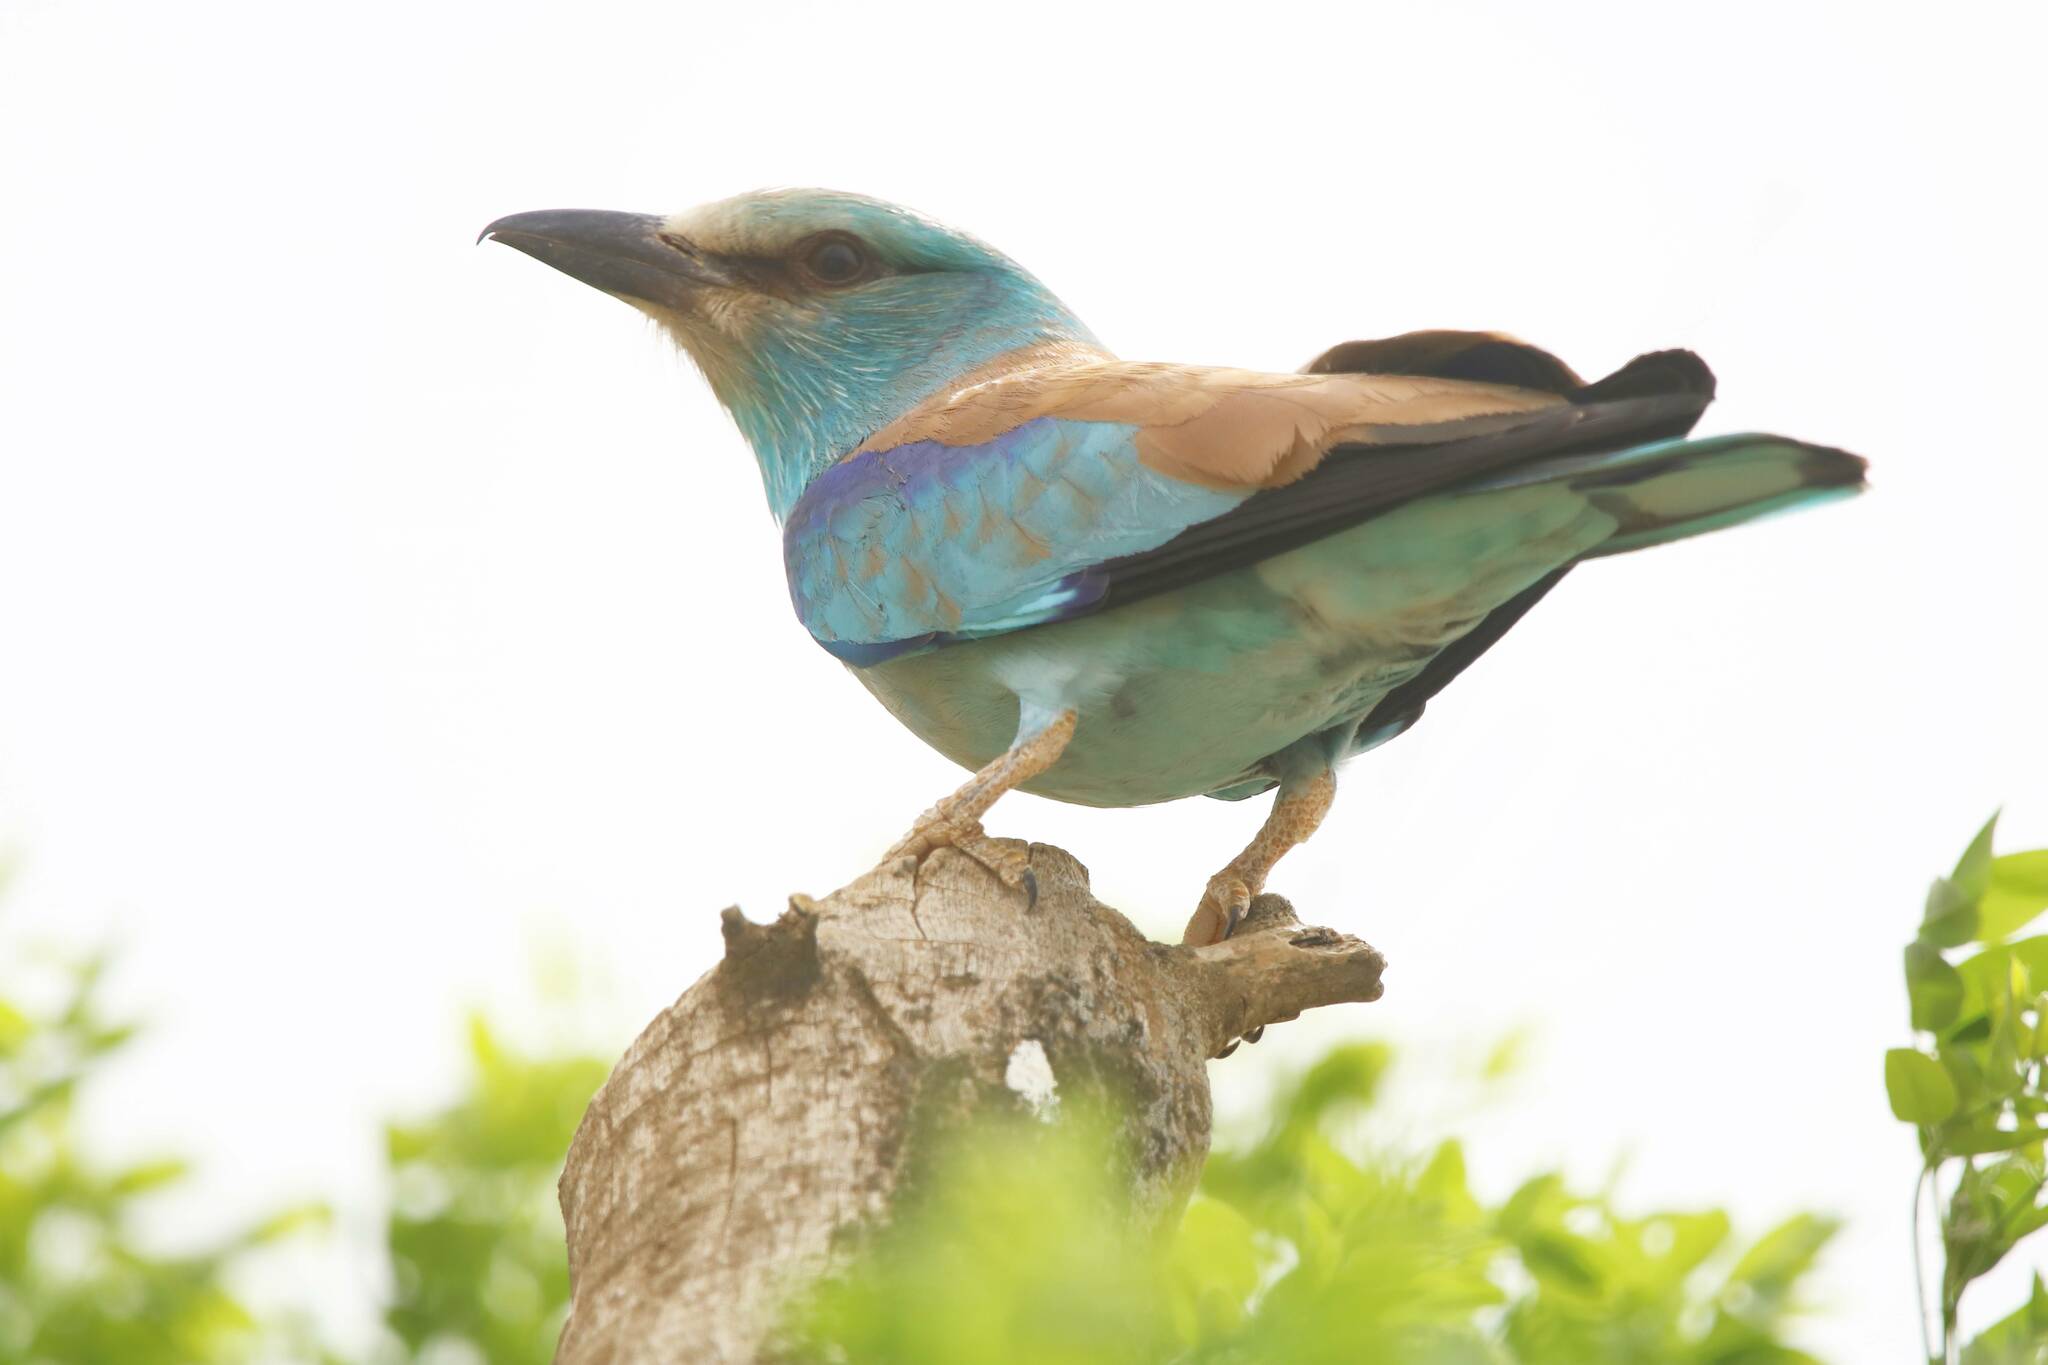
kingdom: Animalia
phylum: Chordata
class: Aves
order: Coraciiformes
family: Coraciidae
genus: Coracias
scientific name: Coracias garrulus
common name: European roller
